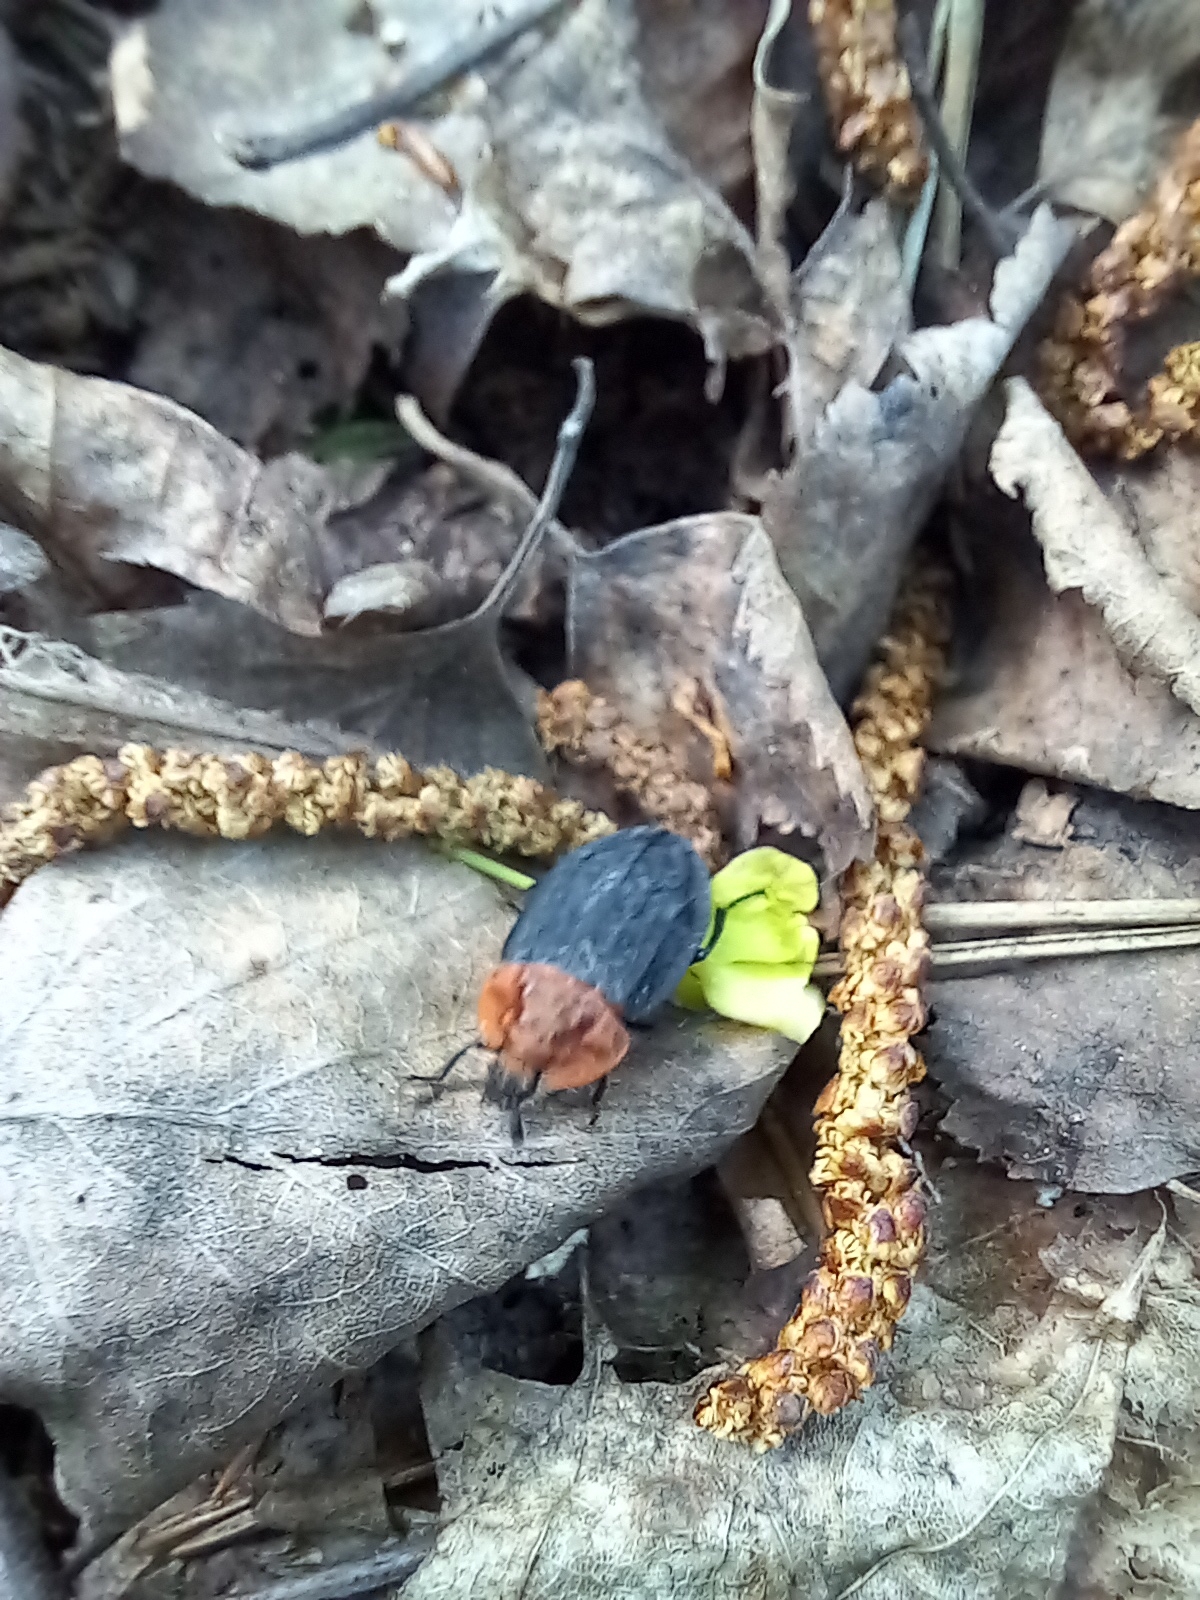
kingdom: Animalia
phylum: Arthropoda
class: Insecta
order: Coleoptera
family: Staphylinidae
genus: Oiceoptoma
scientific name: Oiceoptoma thoracicum
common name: Red-breasted carrion beetle
